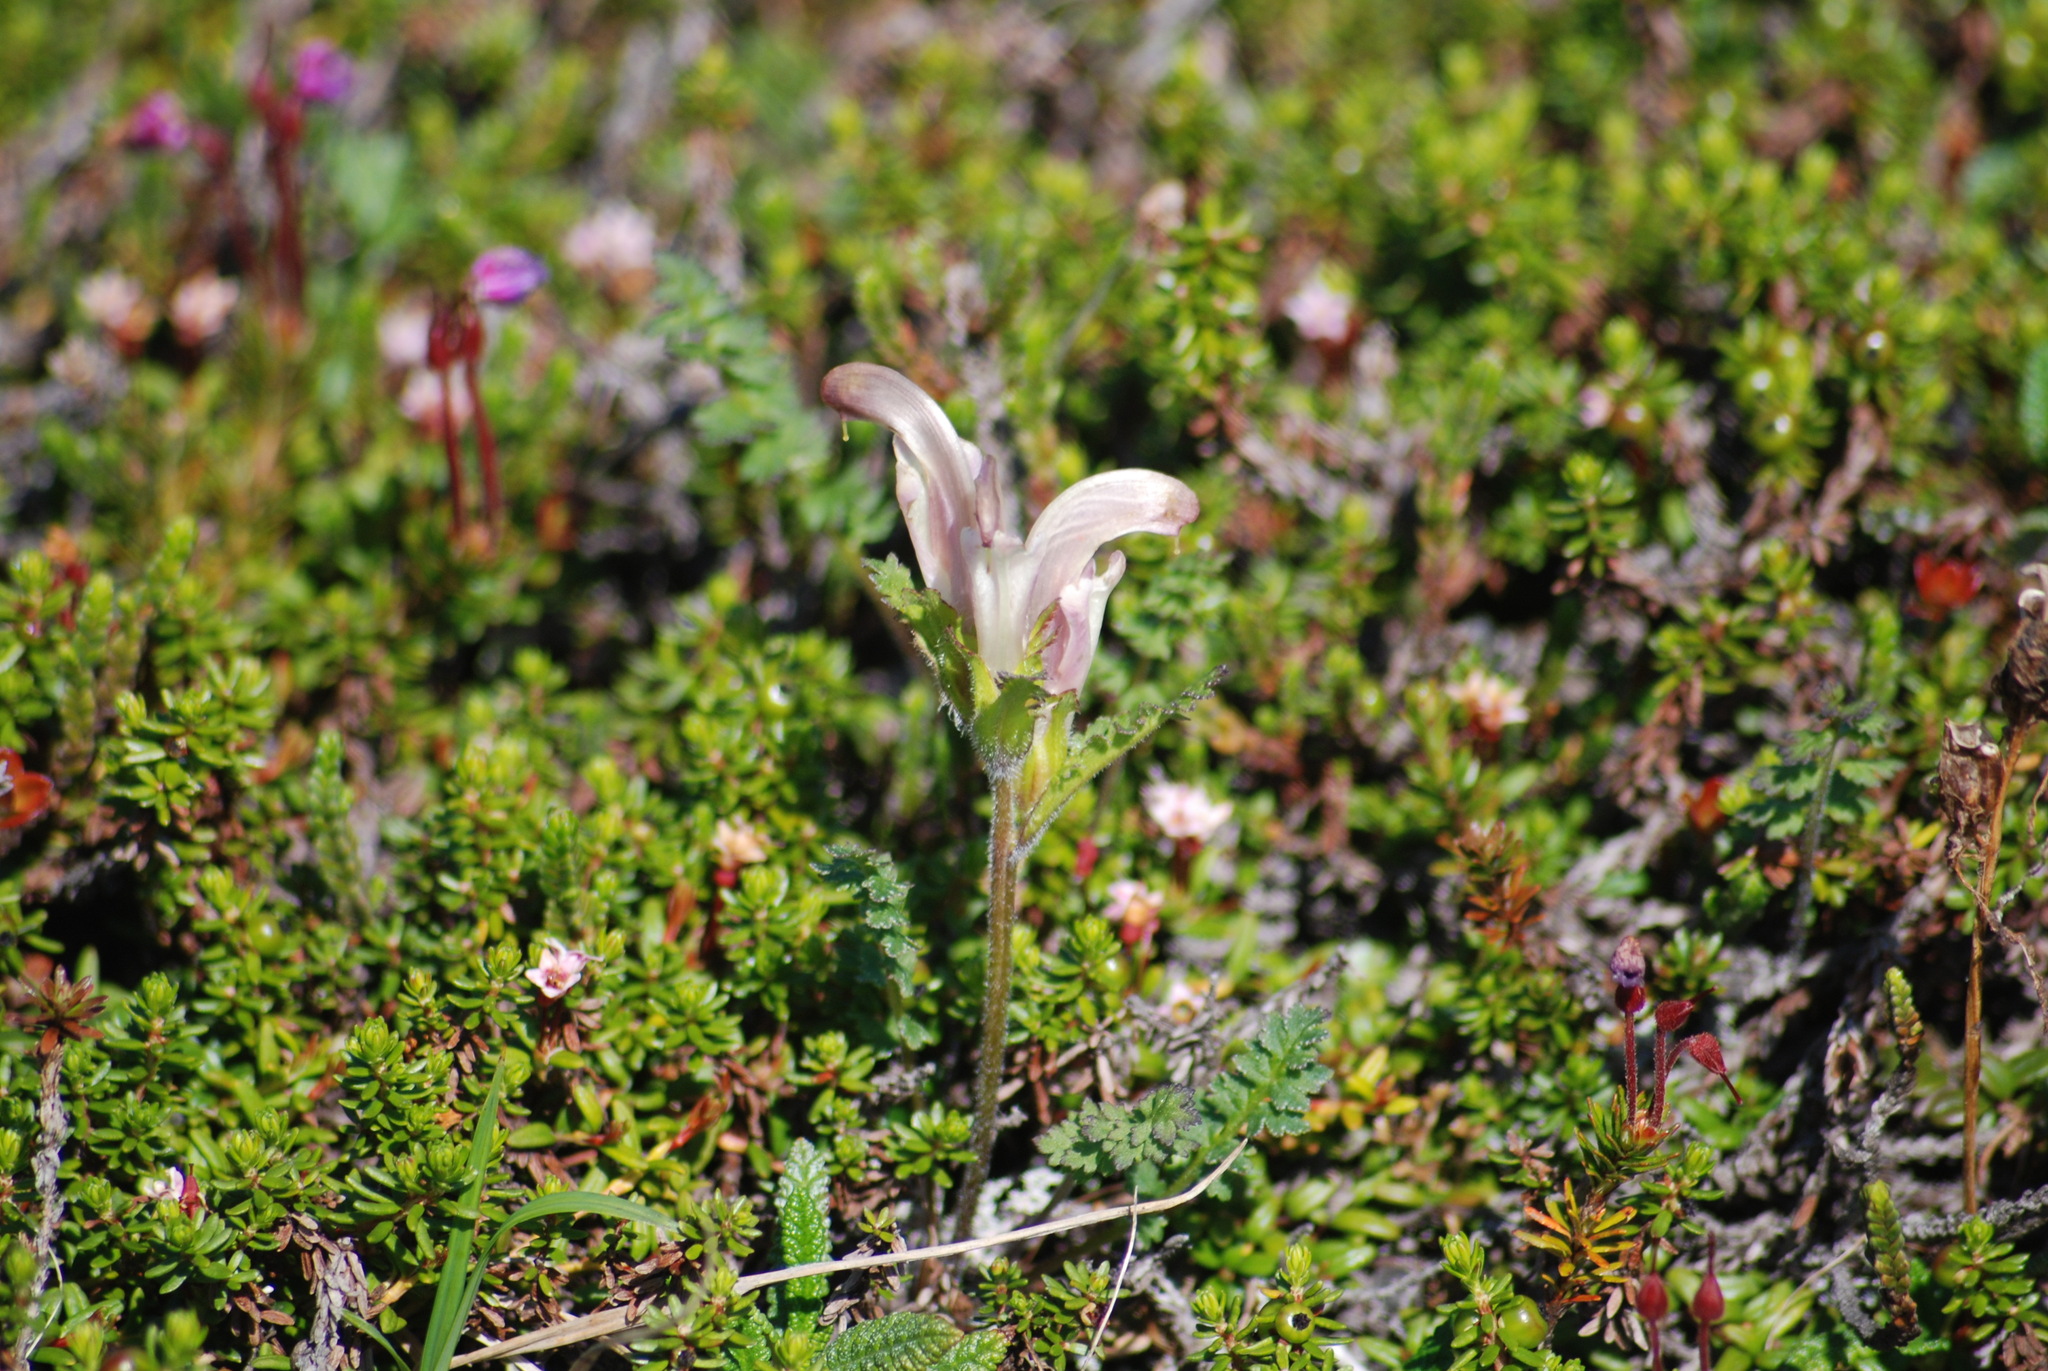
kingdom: Plantae
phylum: Tracheophyta
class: Magnoliopsida
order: Lamiales
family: Orobanchaceae
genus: Pedicularis
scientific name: Pedicularis capitata
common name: Capitate lousewort
